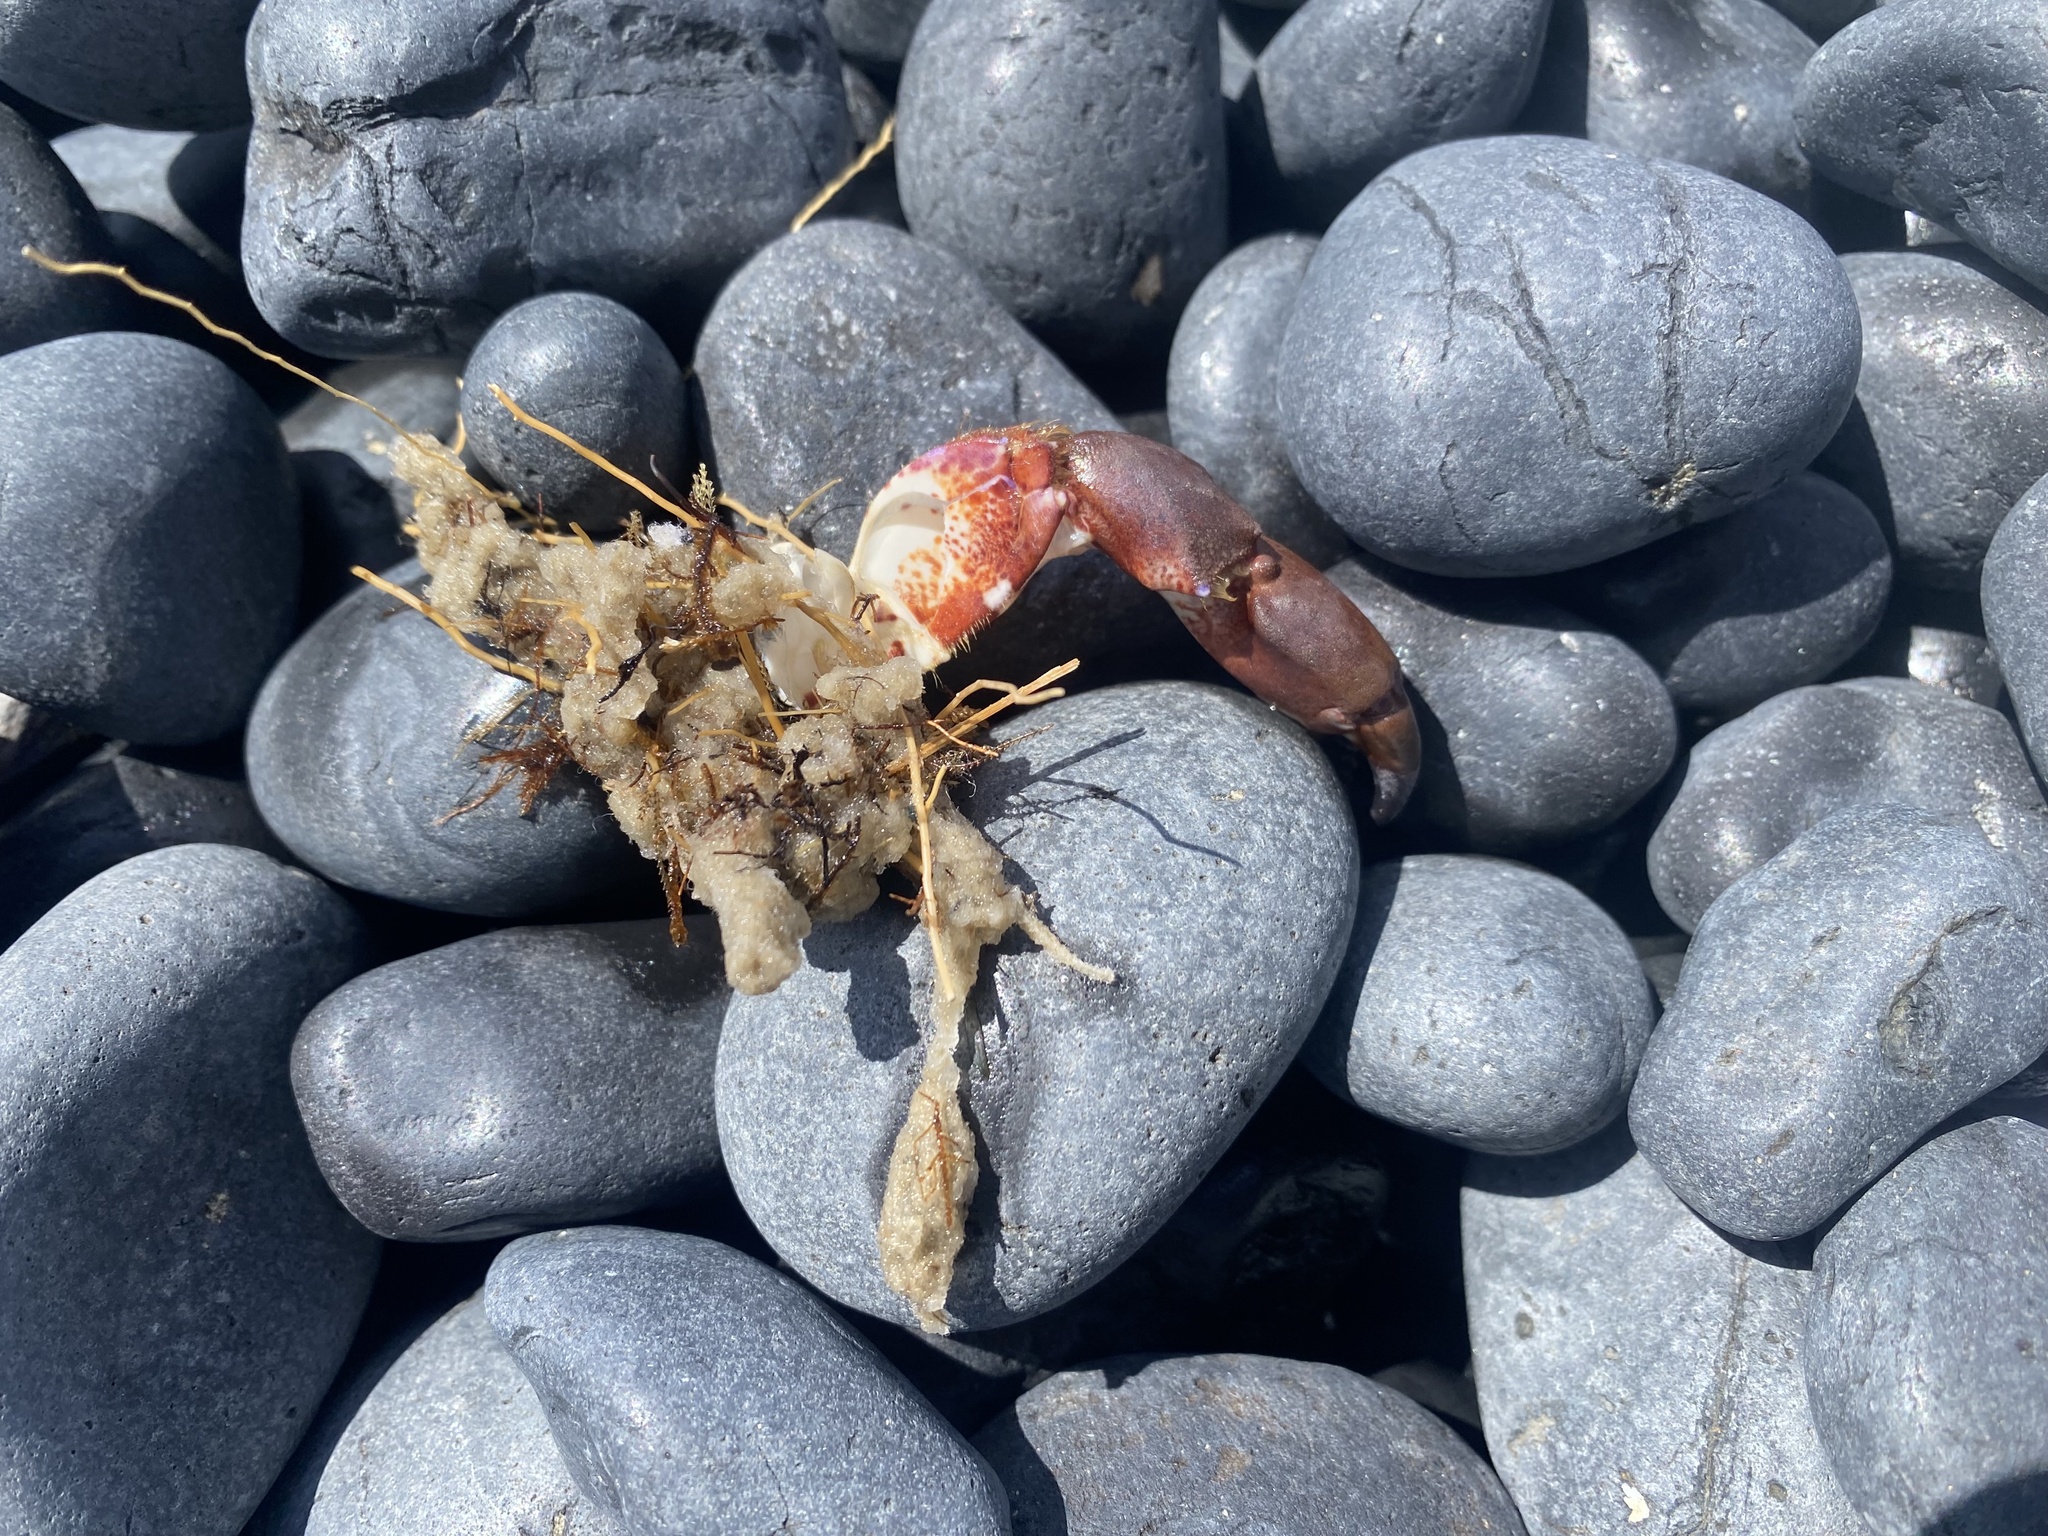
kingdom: Animalia
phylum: Arthropoda
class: Malacostraca
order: Decapoda
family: Cancridae
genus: Romaleon
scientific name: Romaleon antennarium
